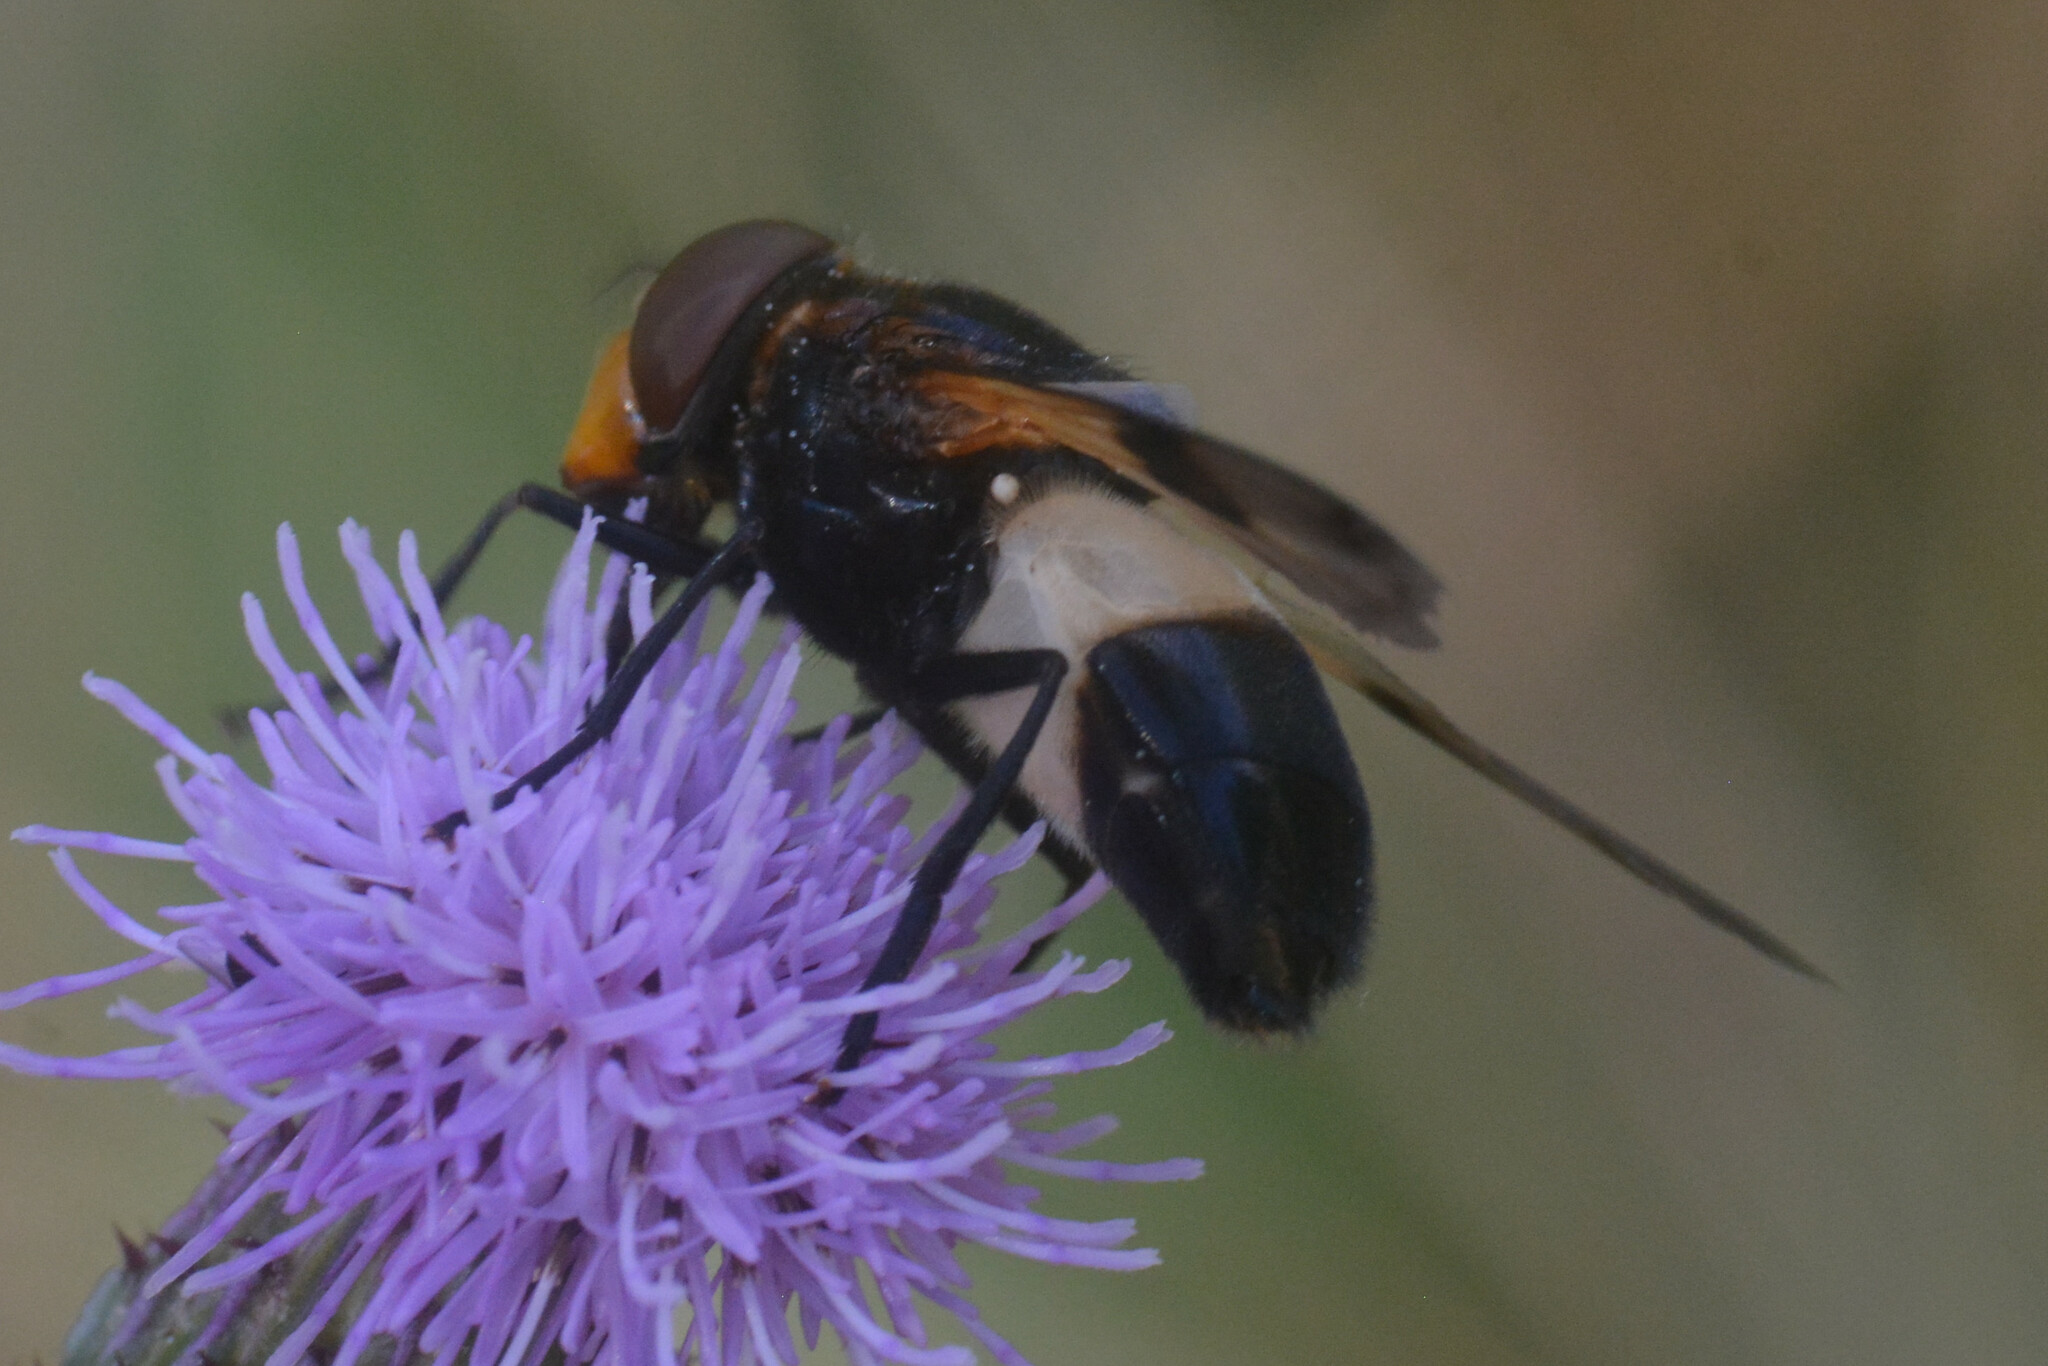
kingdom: Animalia
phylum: Arthropoda
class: Insecta
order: Diptera
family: Syrphidae
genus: Volucella
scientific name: Volucella pellucens
